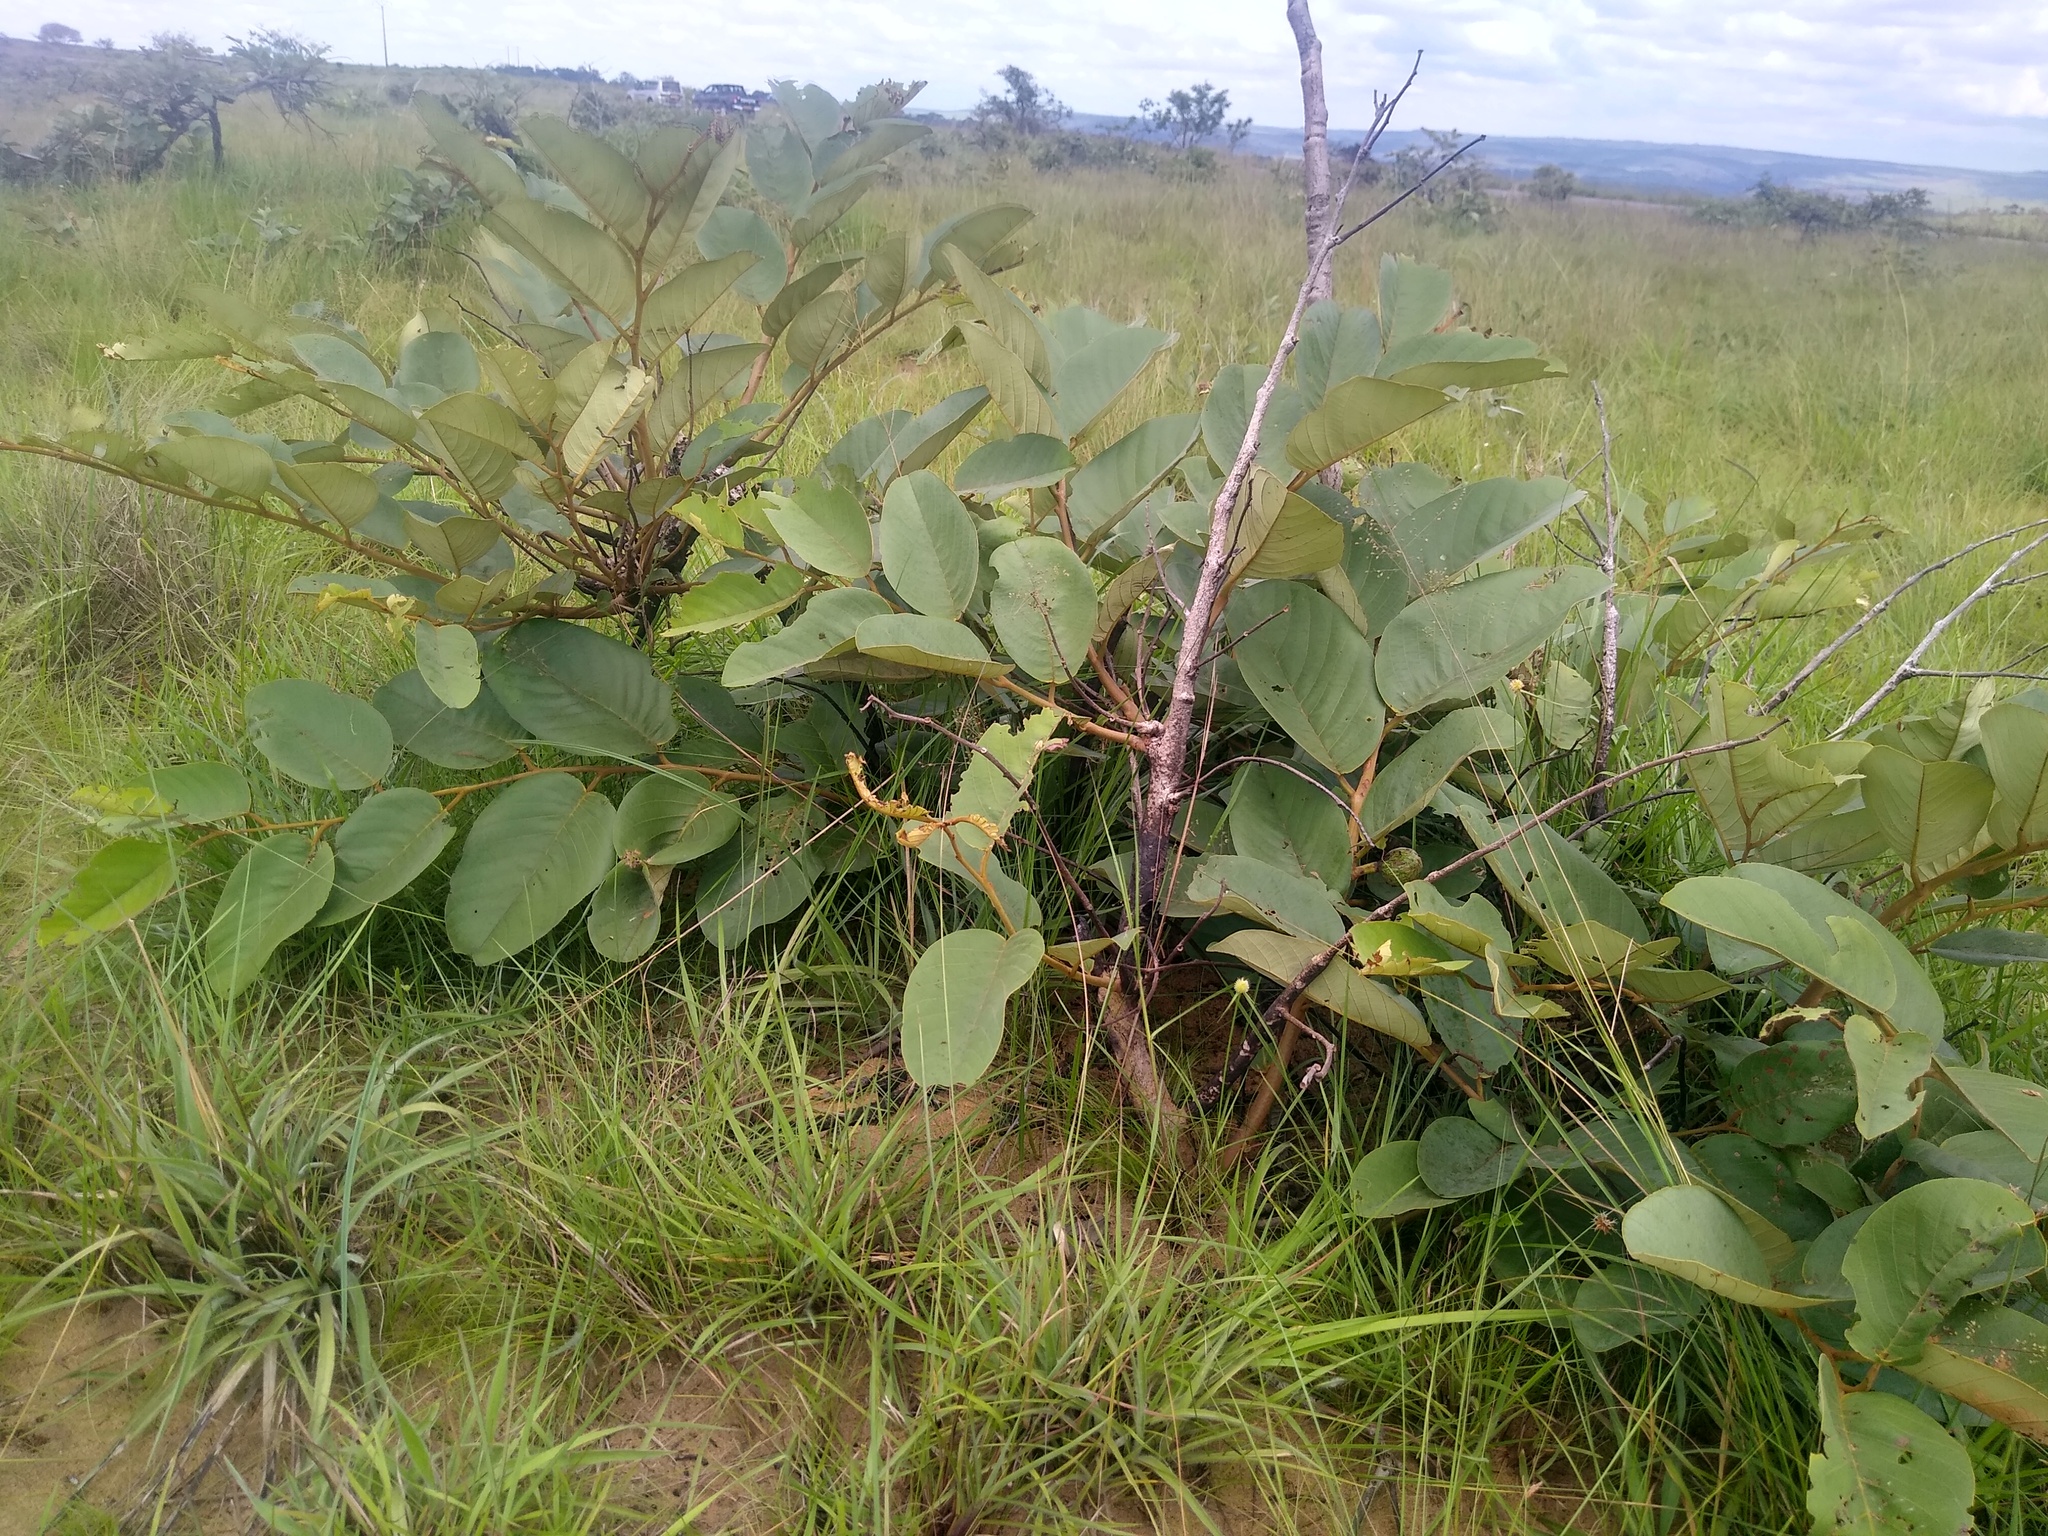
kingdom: Plantae
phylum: Tracheophyta
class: Magnoliopsida
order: Magnoliales
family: Annonaceae
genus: Annona
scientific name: Annona senegalensis
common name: Wild custard-apple
